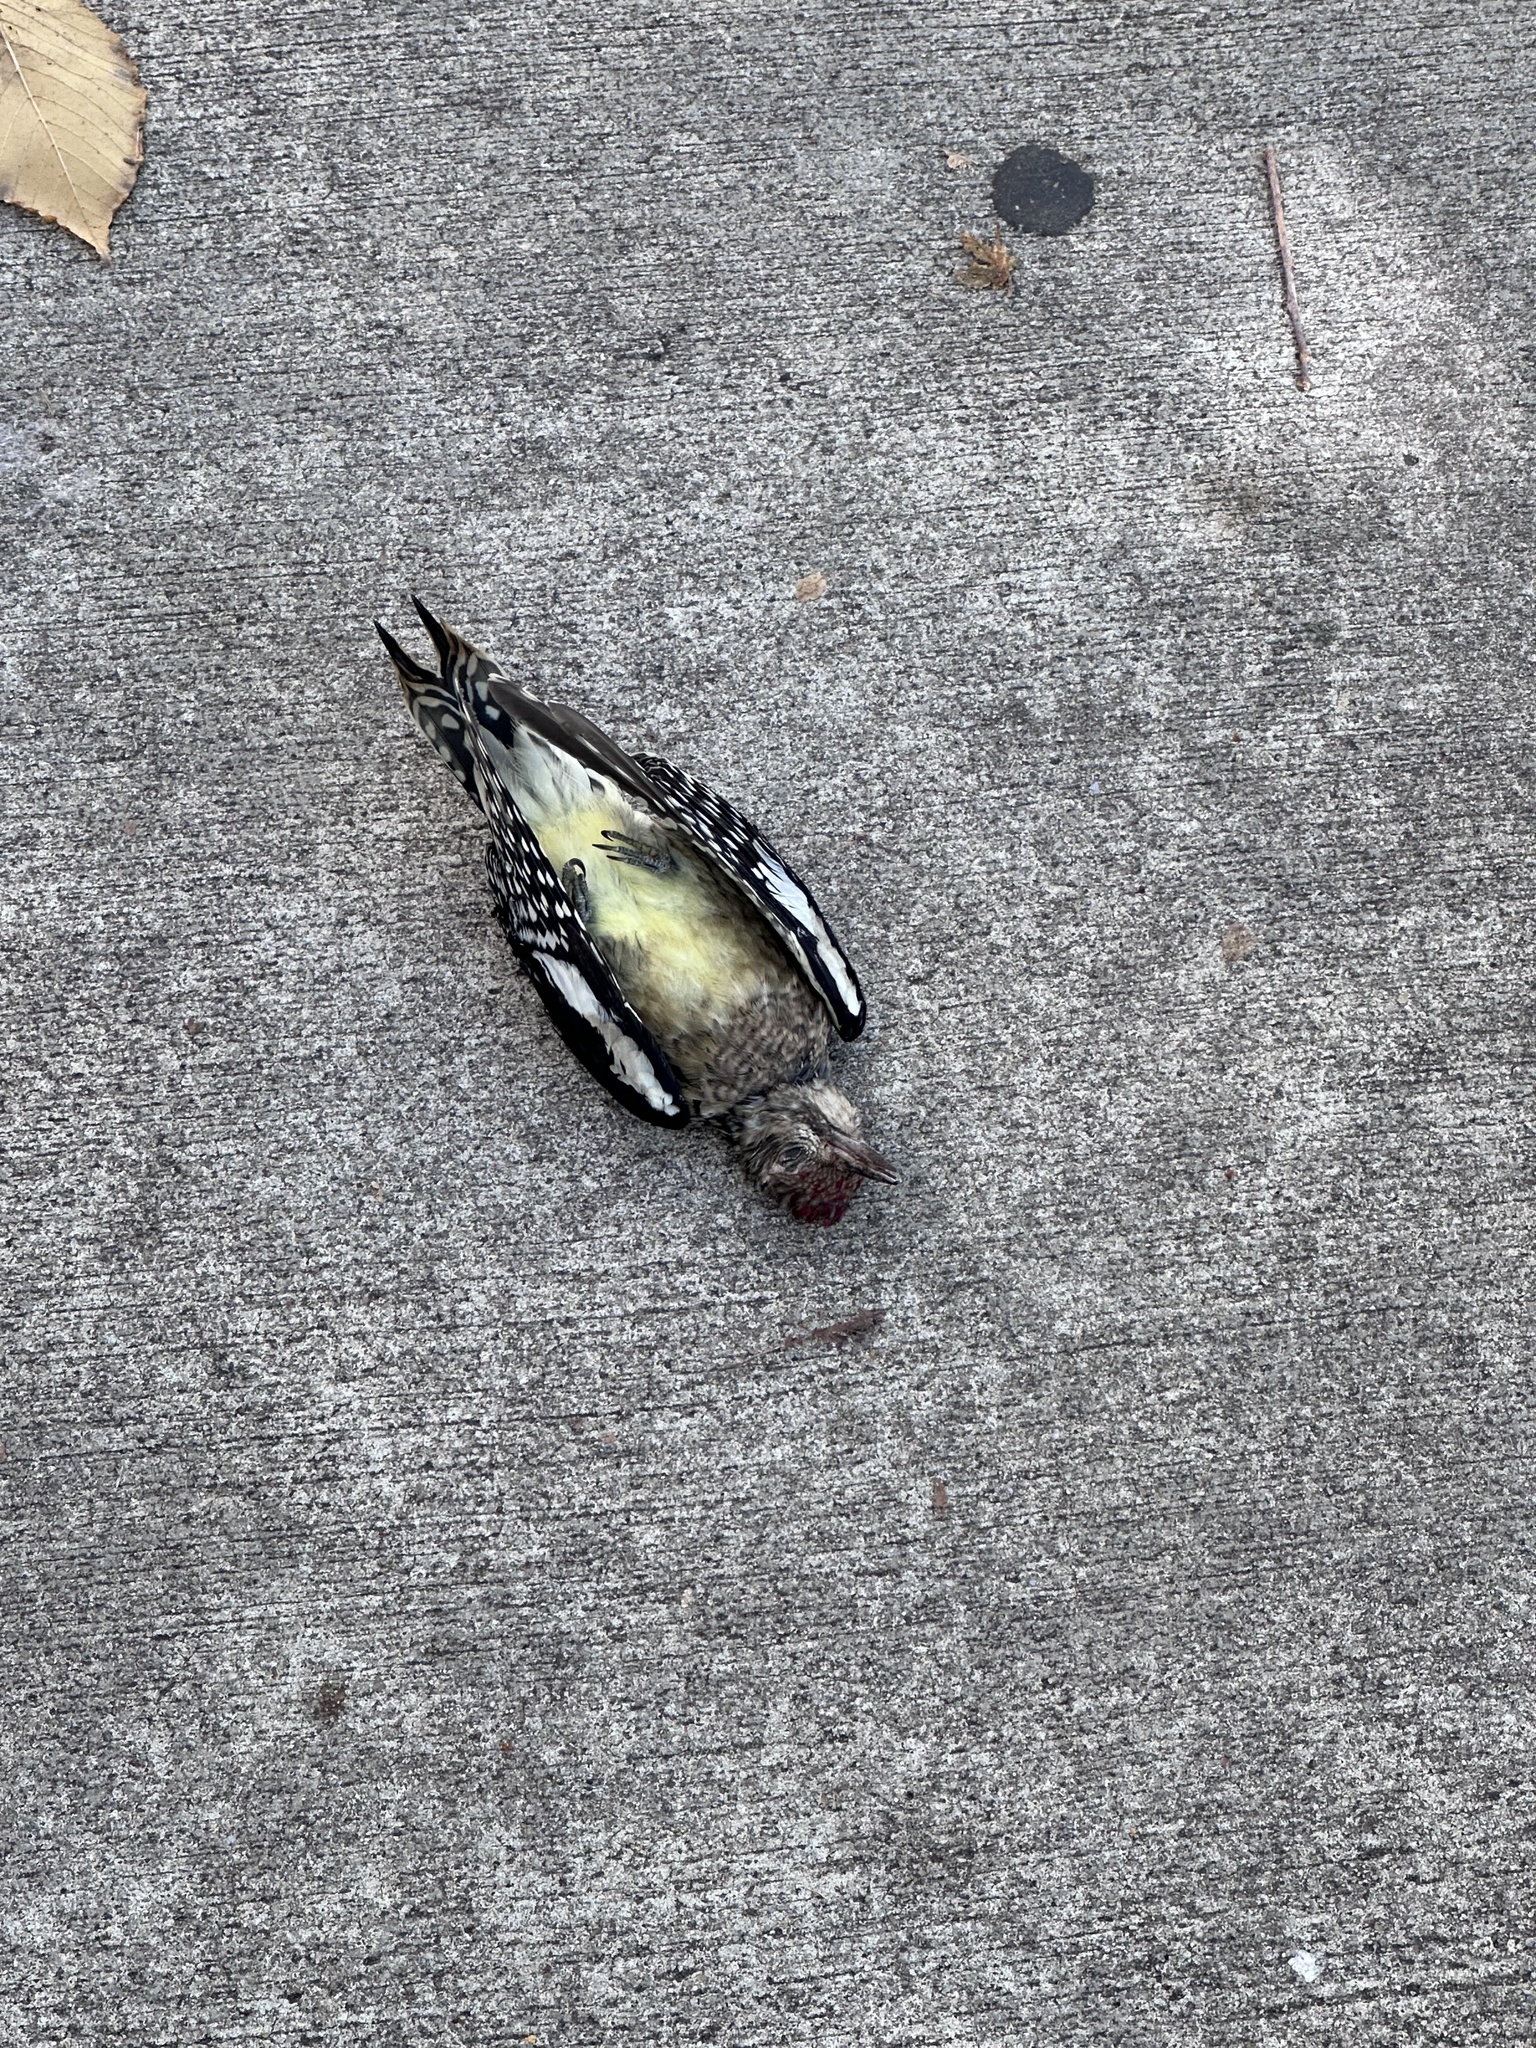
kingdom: Animalia
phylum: Chordata
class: Aves
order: Piciformes
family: Picidae
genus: Sphyrapicus
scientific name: Sphyrapicus varius
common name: Yellow-bellied sapsucker
